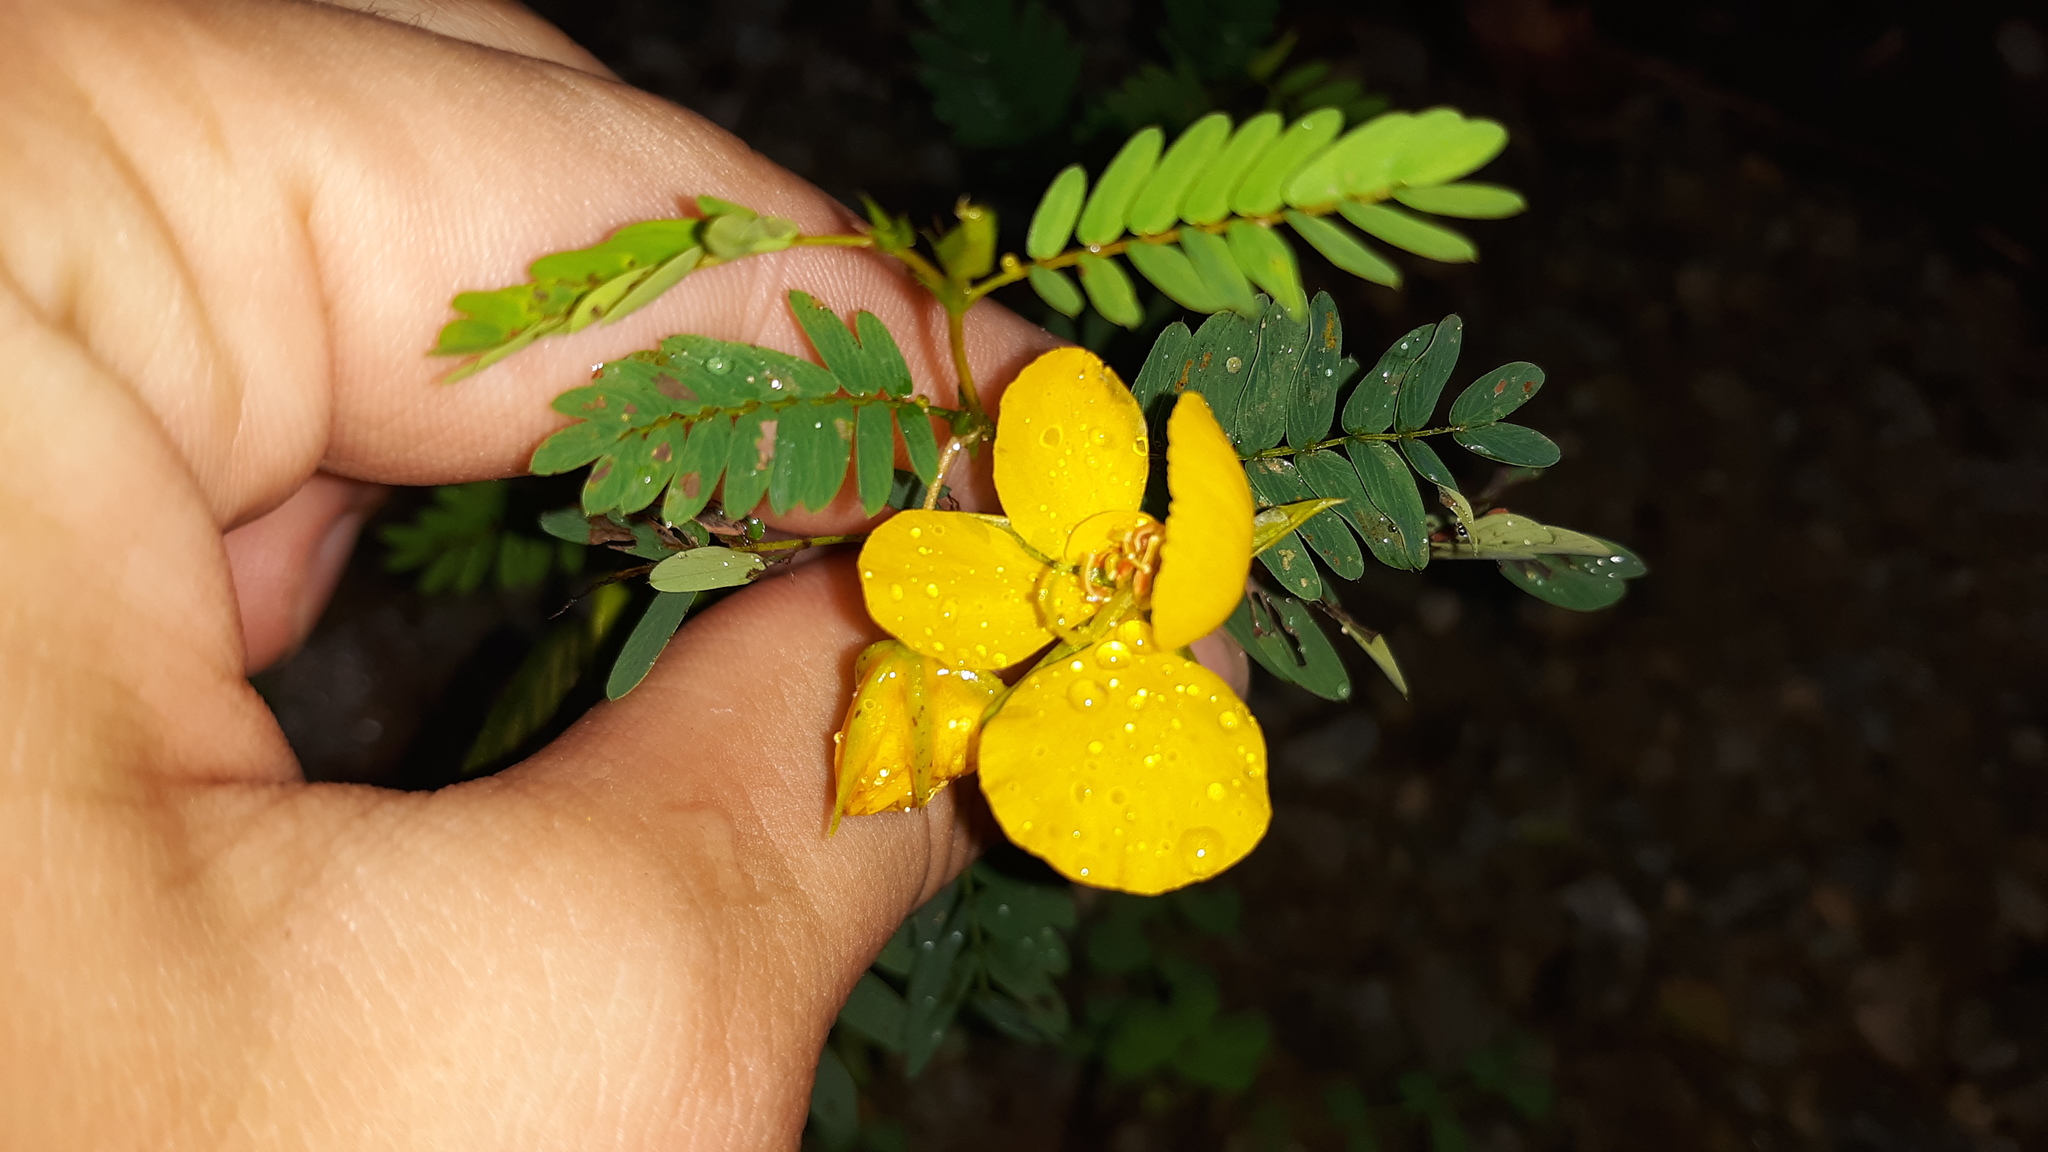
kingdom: Plantae
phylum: Tracheophyta
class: Magnoliopsida
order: Fabales
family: Fabaceae
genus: Chamaecrista
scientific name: Chamaecrista fasciculata
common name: Golden cassia
